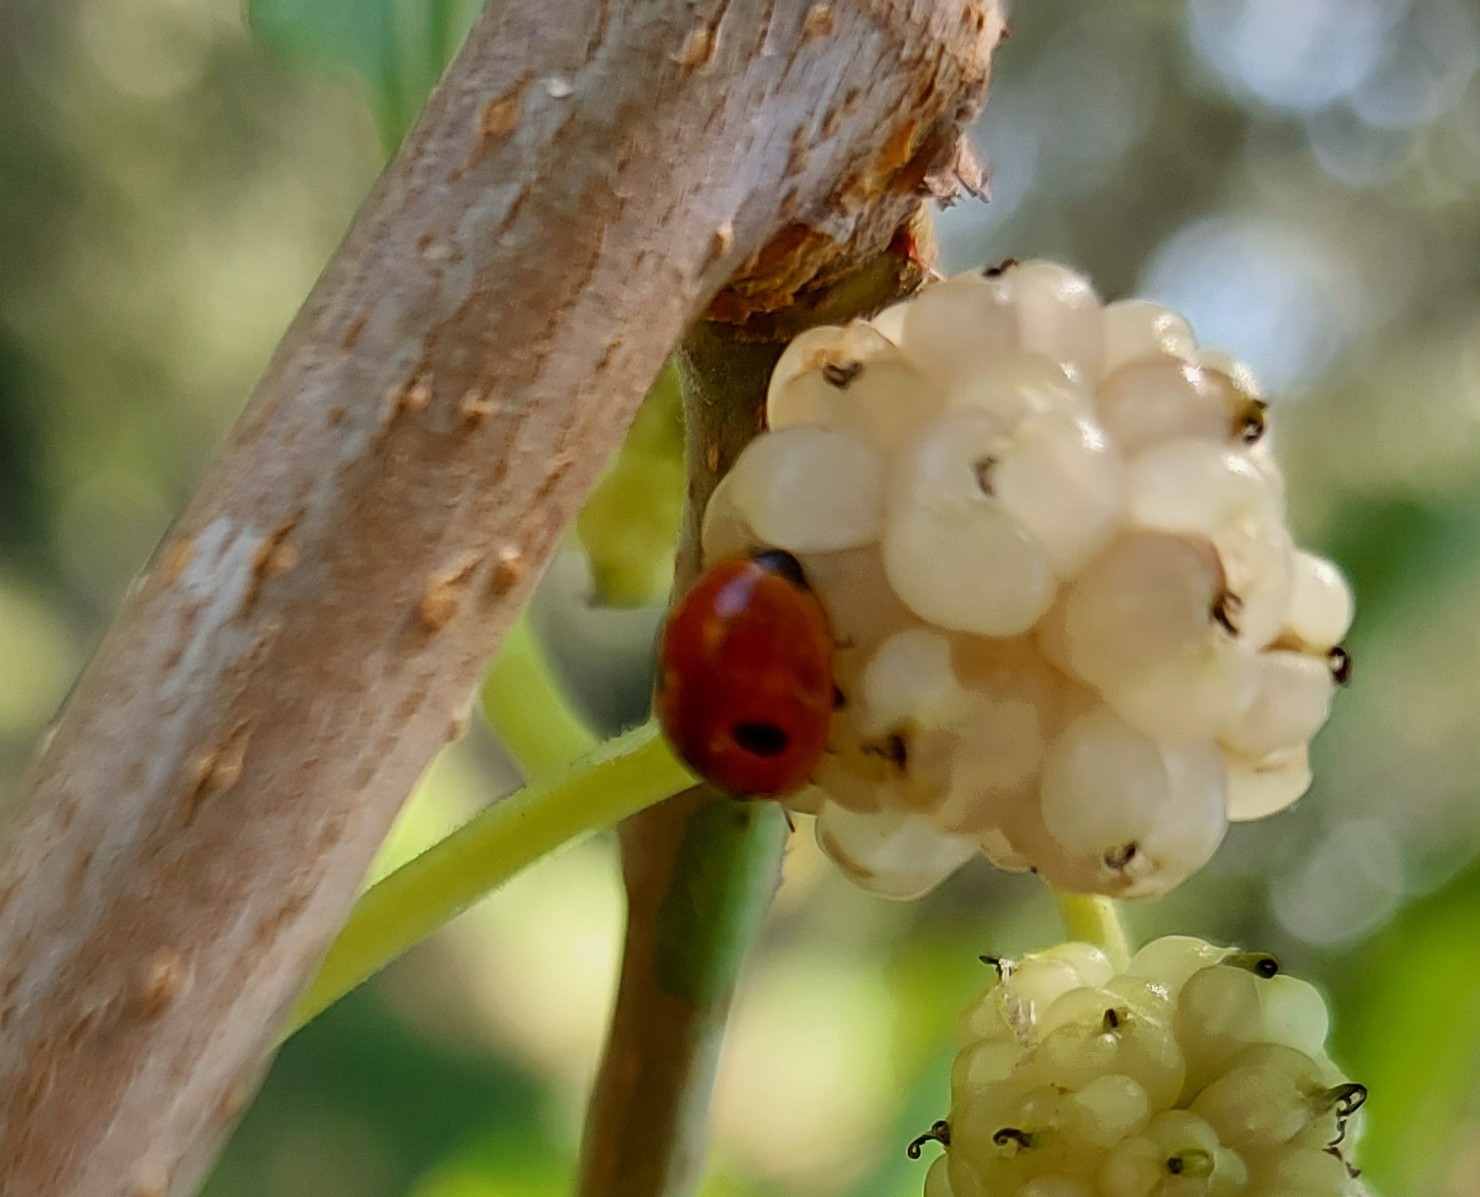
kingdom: Animalia
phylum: Arthropoda
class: Insecta
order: Coleoptera
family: Coccinellidae
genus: Adalia
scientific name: Adalia bipunctata
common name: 2-spot ladybird
